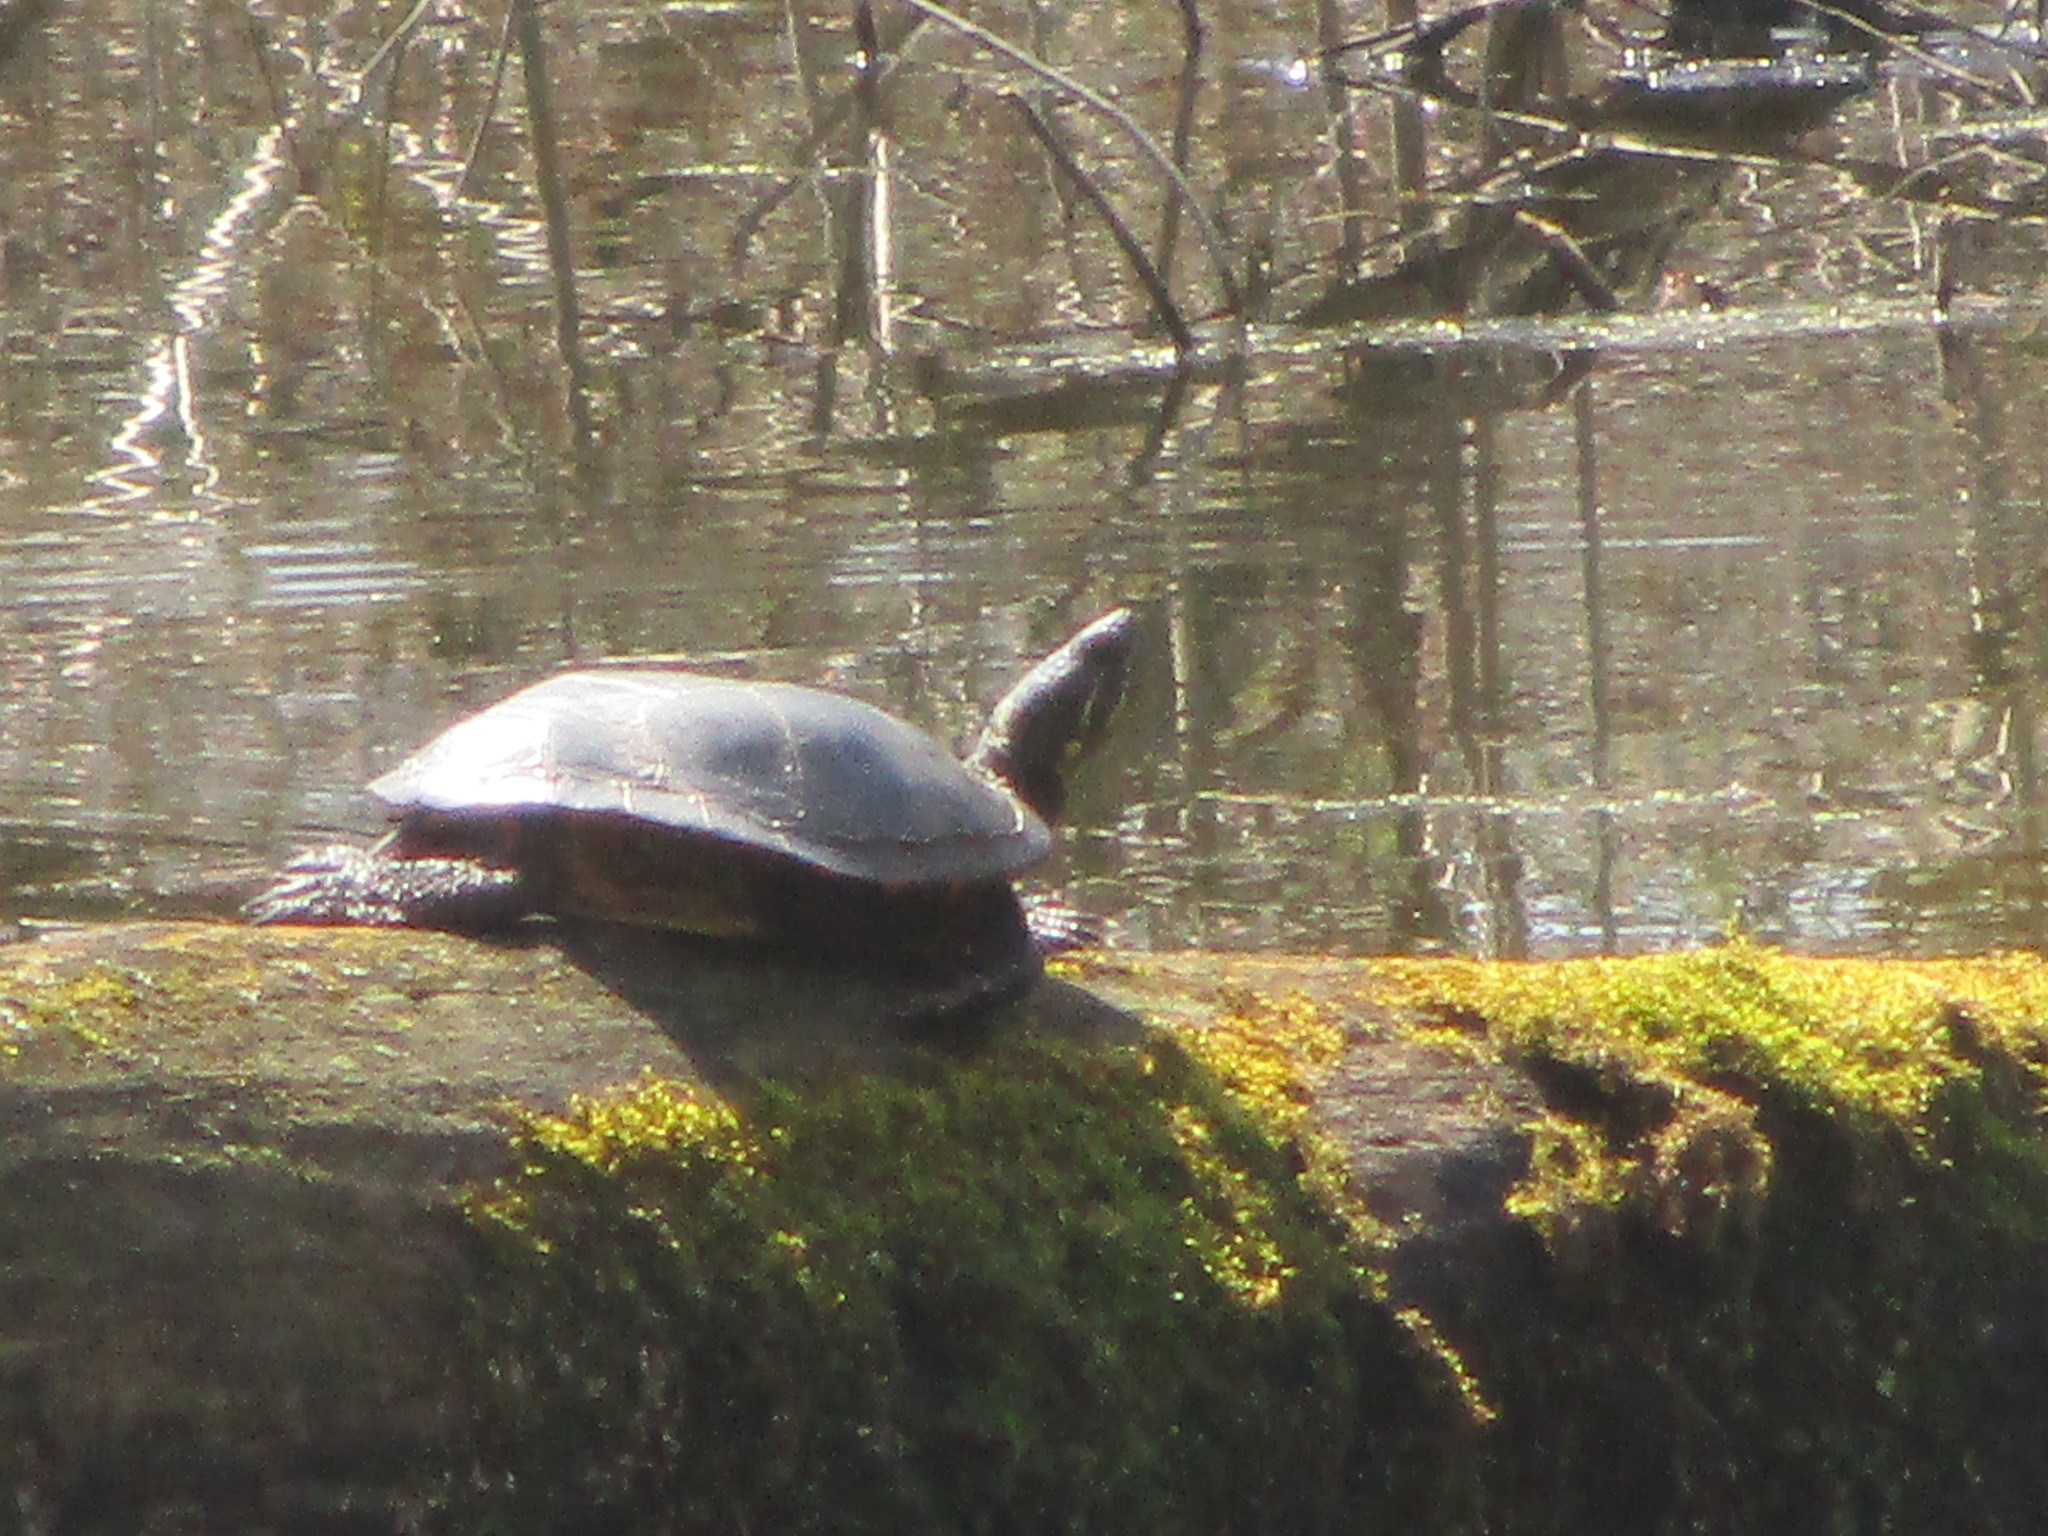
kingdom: Animalia
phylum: Chordata
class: Testudines
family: Emydidae
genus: Chrysemys
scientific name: Chrysemys picta
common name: Painted turtle
